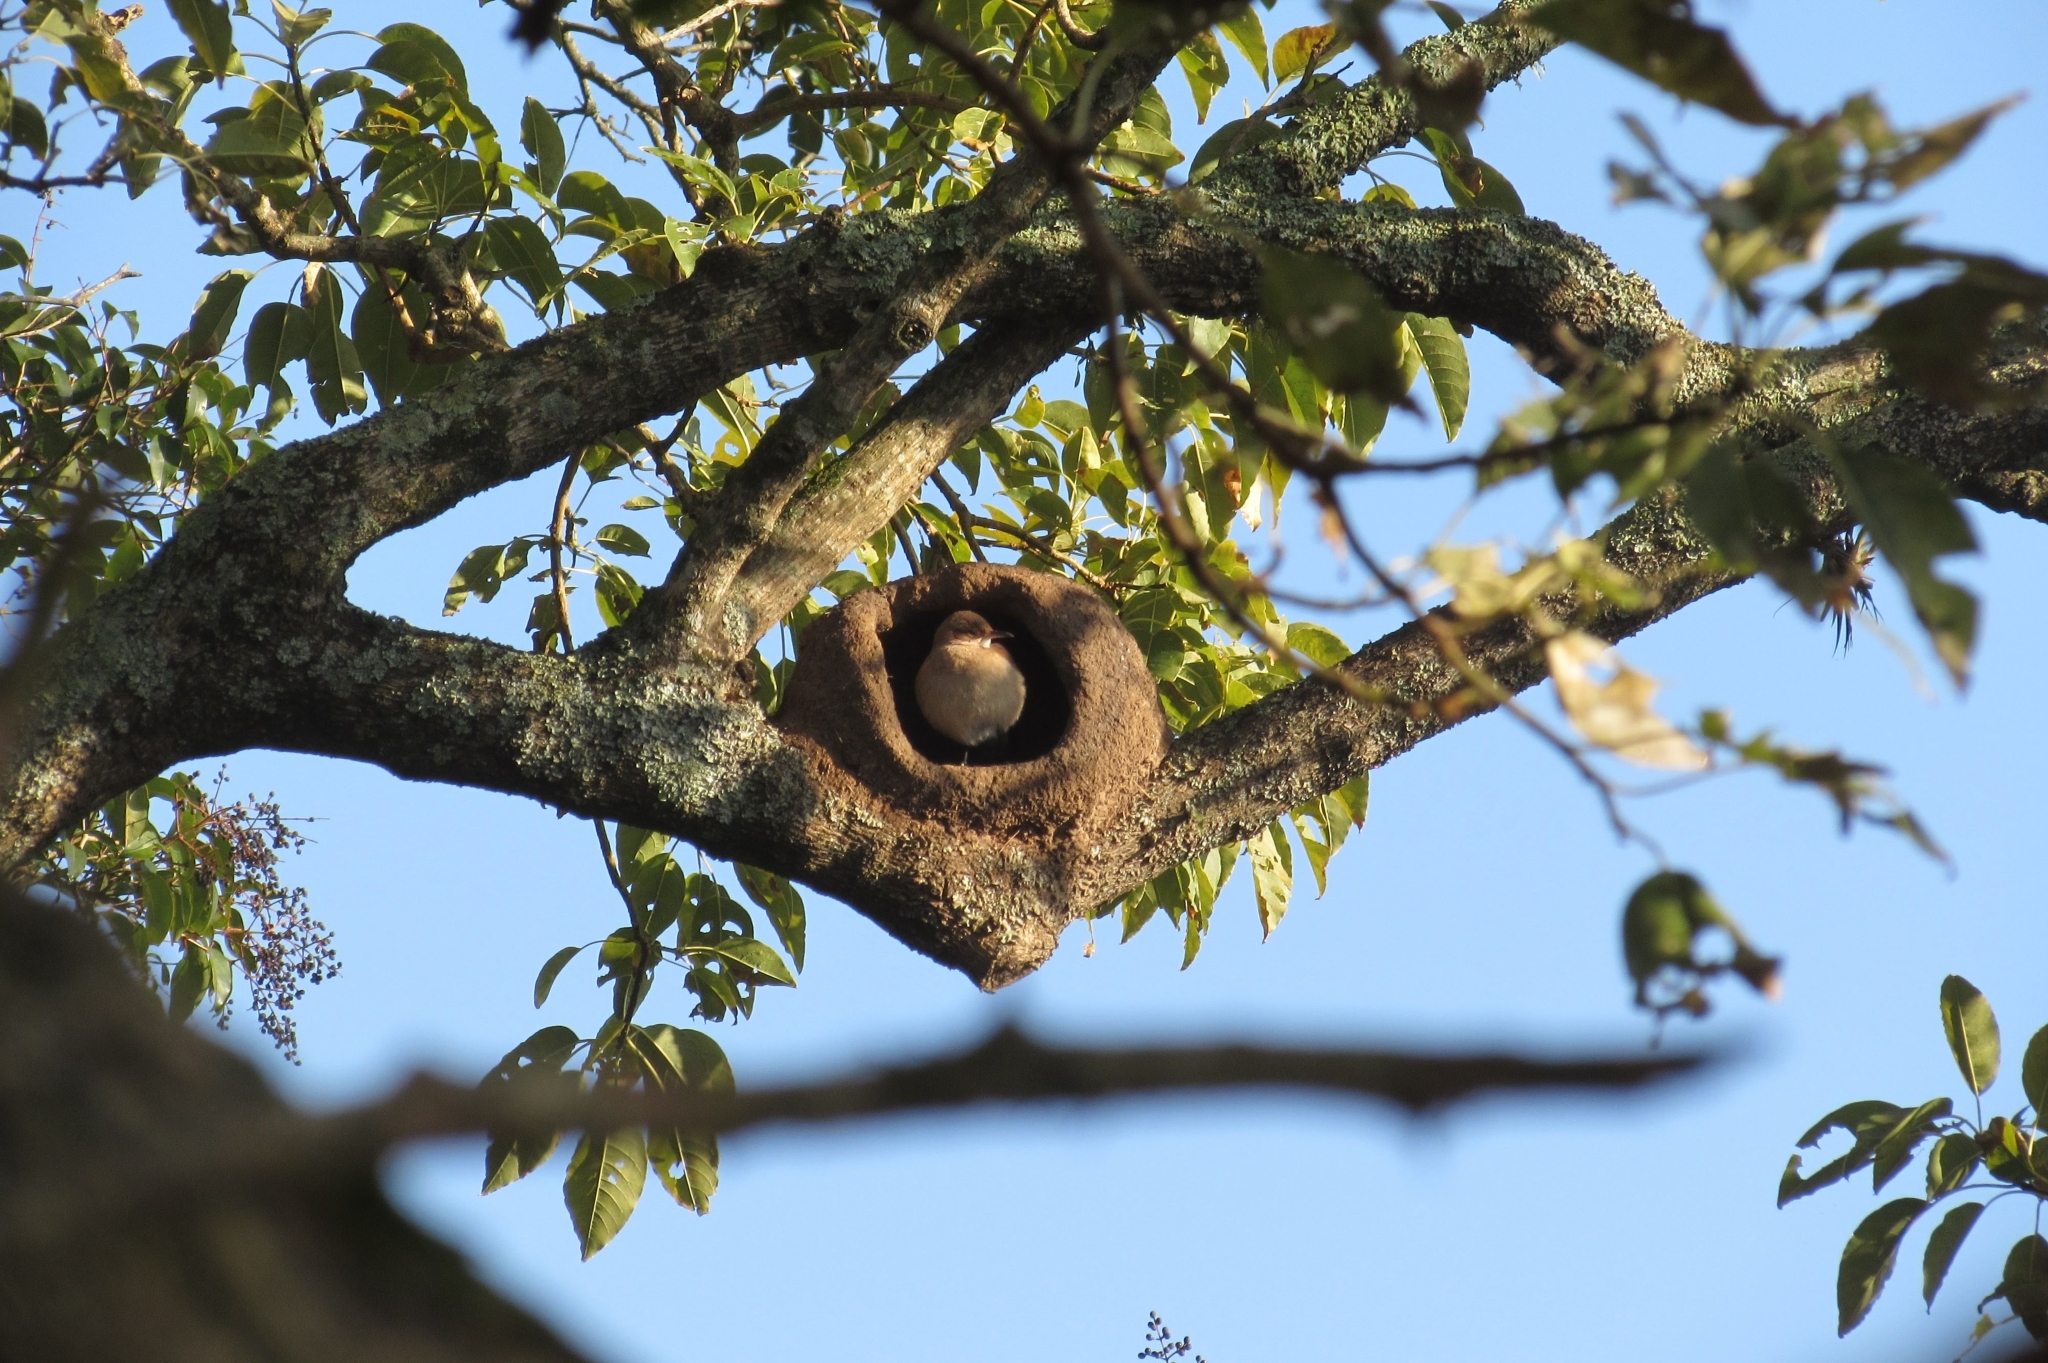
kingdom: Animalia
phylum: Chordata
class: Aves
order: Passeriformes
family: Furnariidae
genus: Furnarius
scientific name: Furnarius rufus
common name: Rufous hornero
